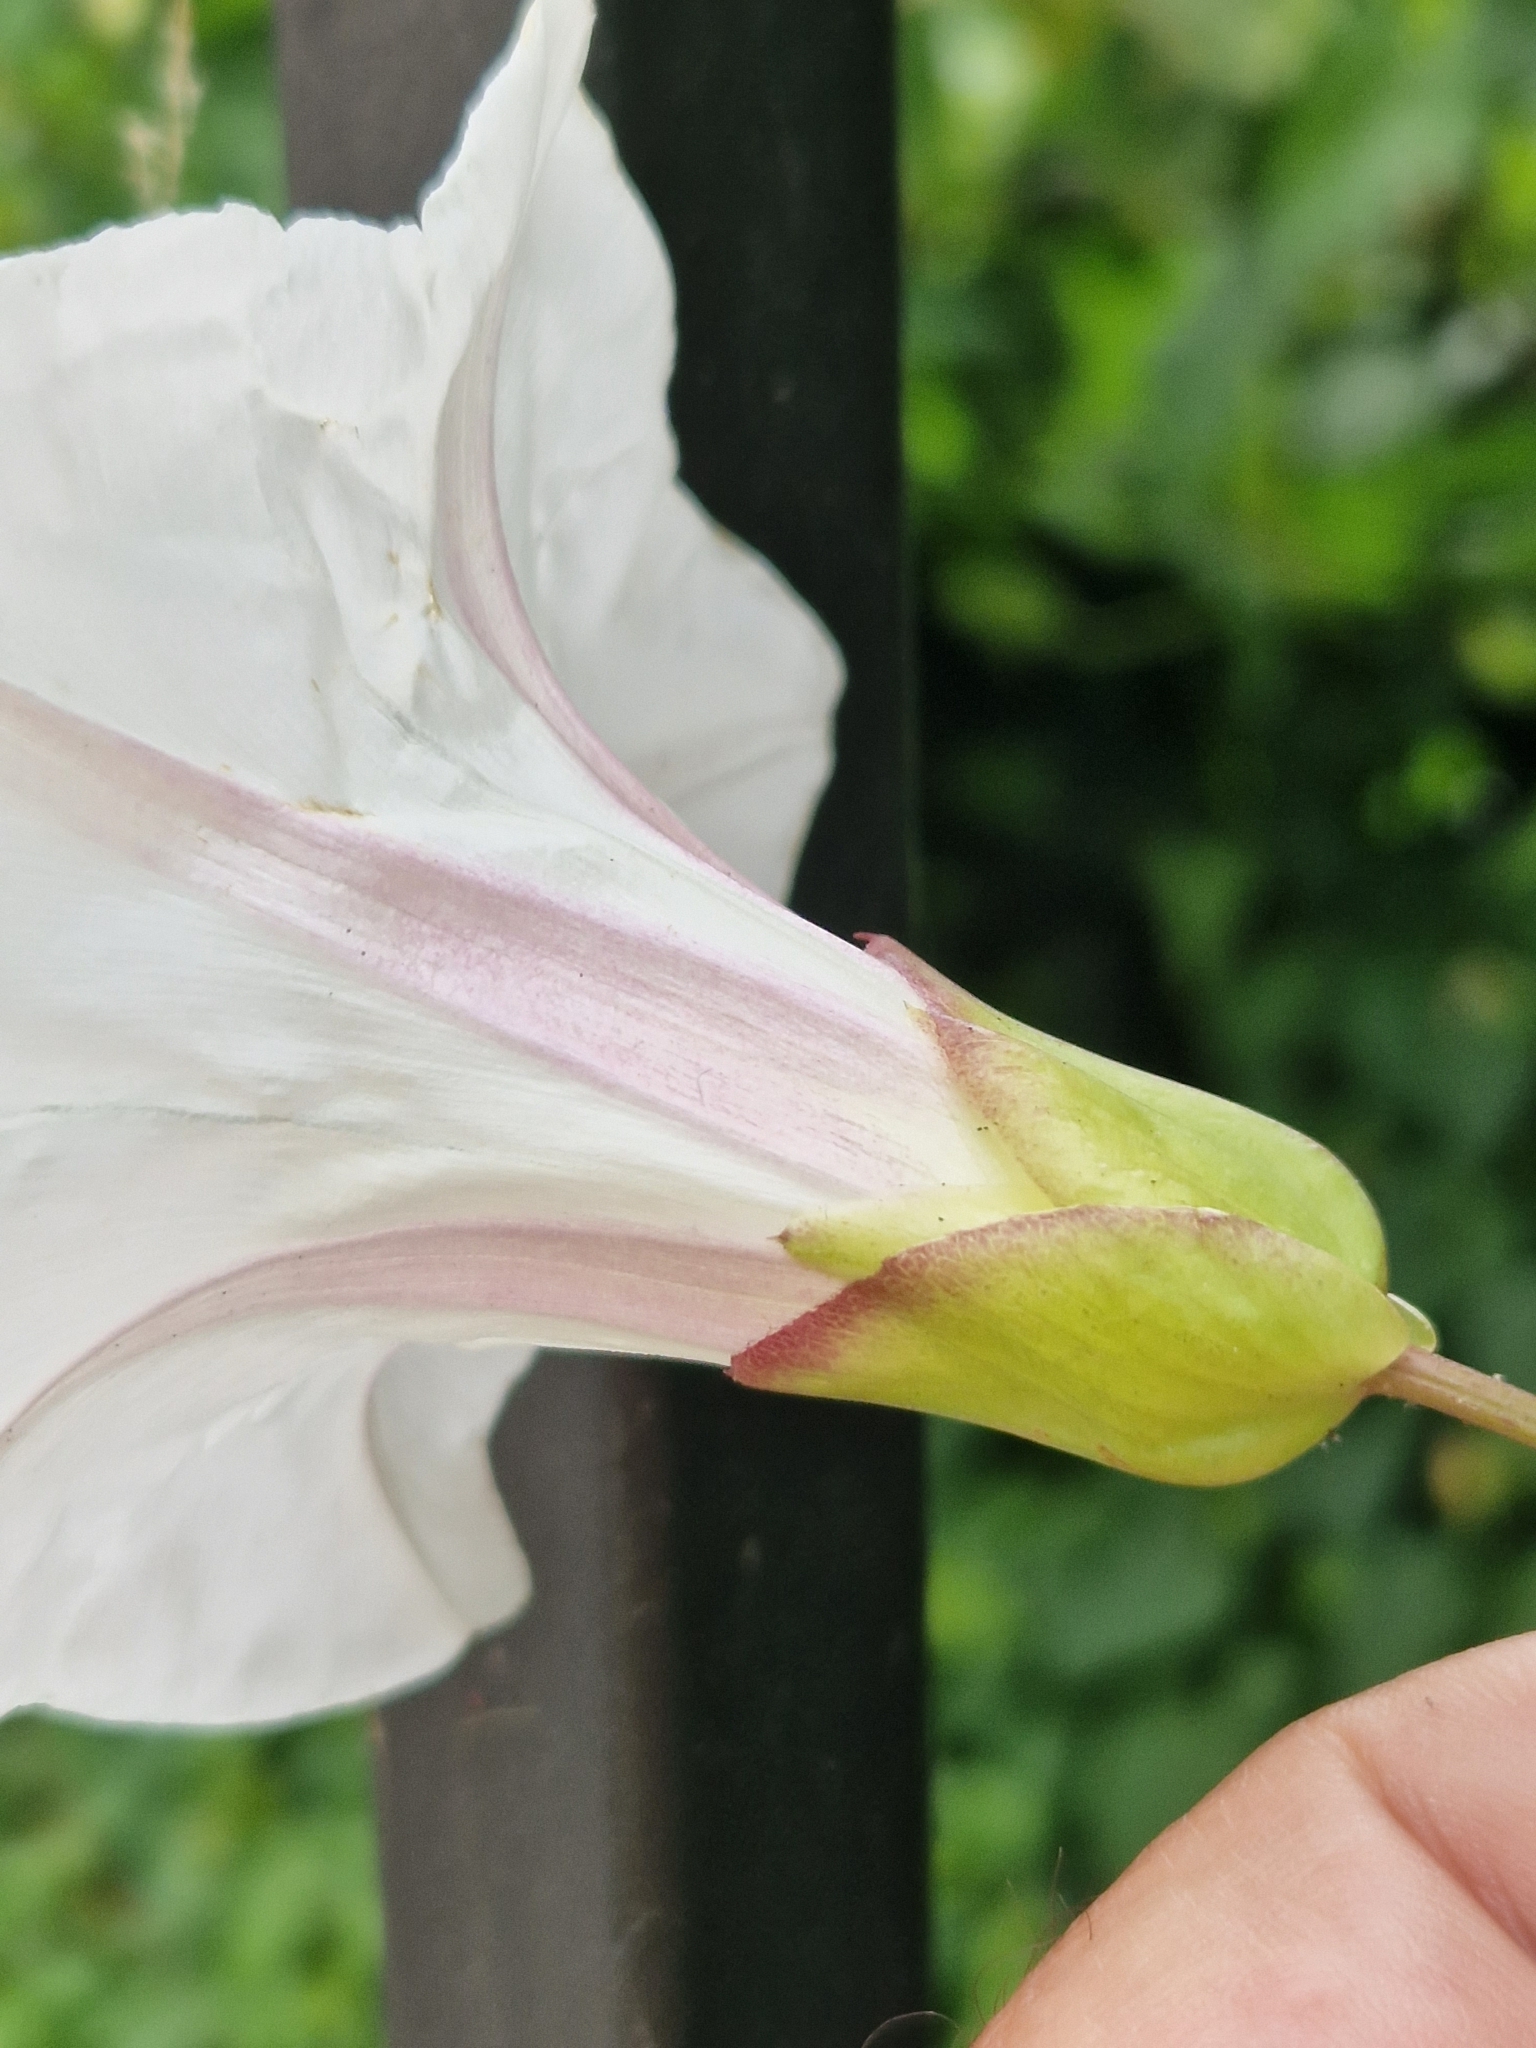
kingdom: Plantae
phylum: Tracheophyta
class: Magnoliopsida
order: Solanales
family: Convolvulaceae
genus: Calystegia
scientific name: Calystegia lucana
